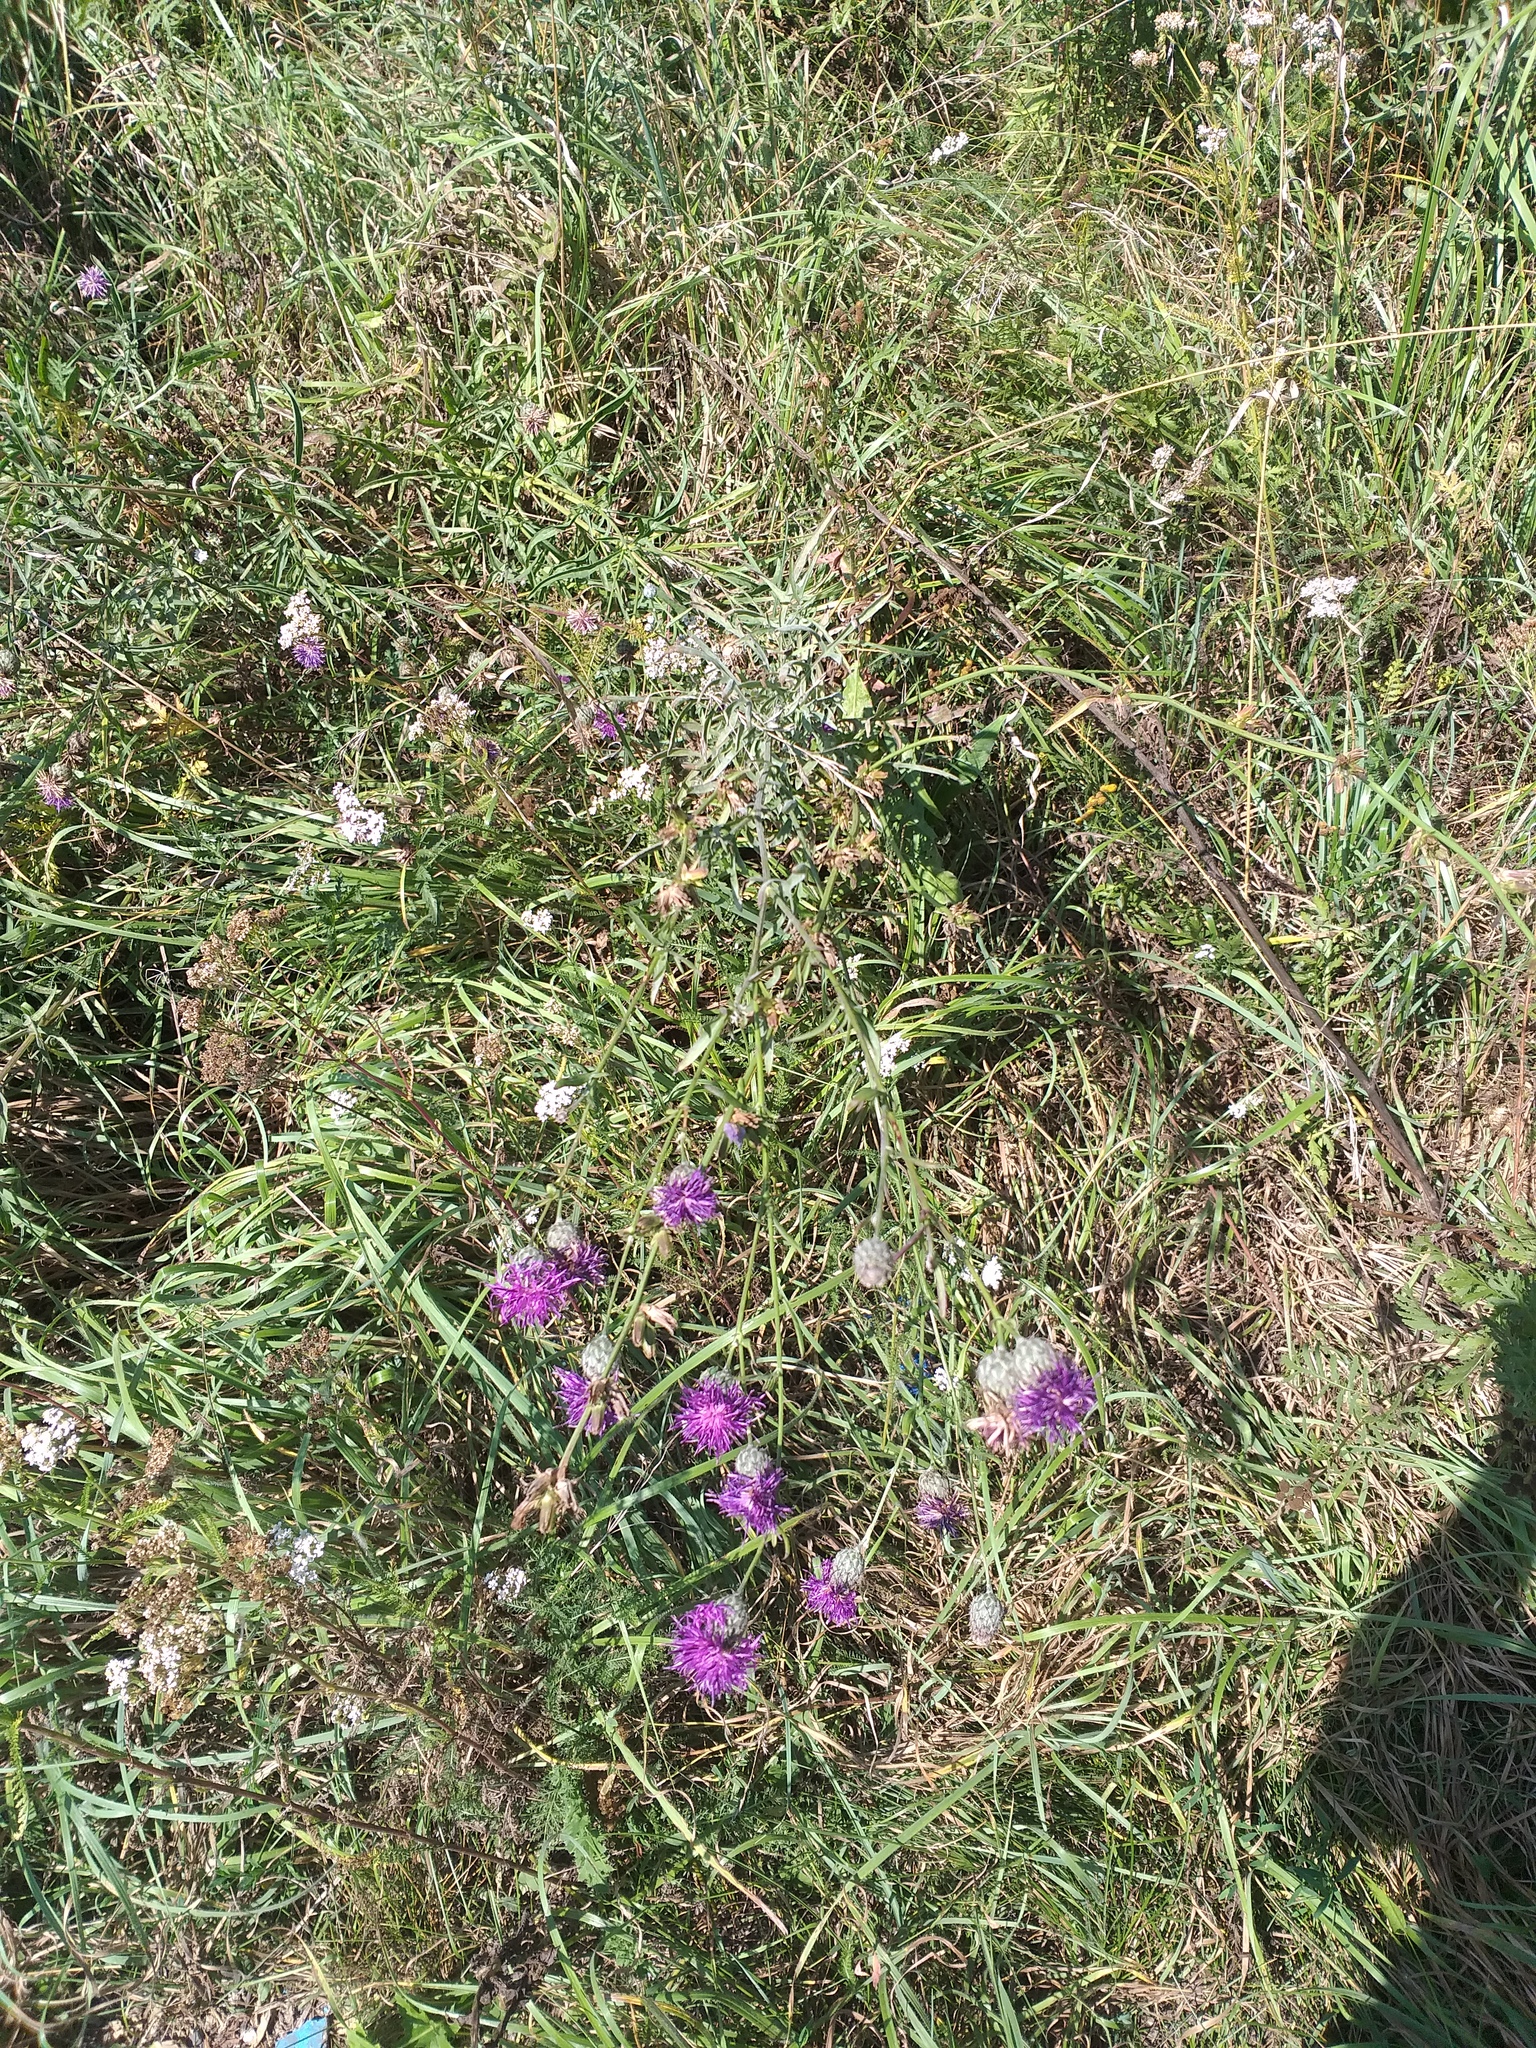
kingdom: Plantae
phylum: Tracheophyta
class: Magnoliopsida
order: Asterales
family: Asteraceae
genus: Centaurea
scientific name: Centaurea scabiosa
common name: Greater knapweed
